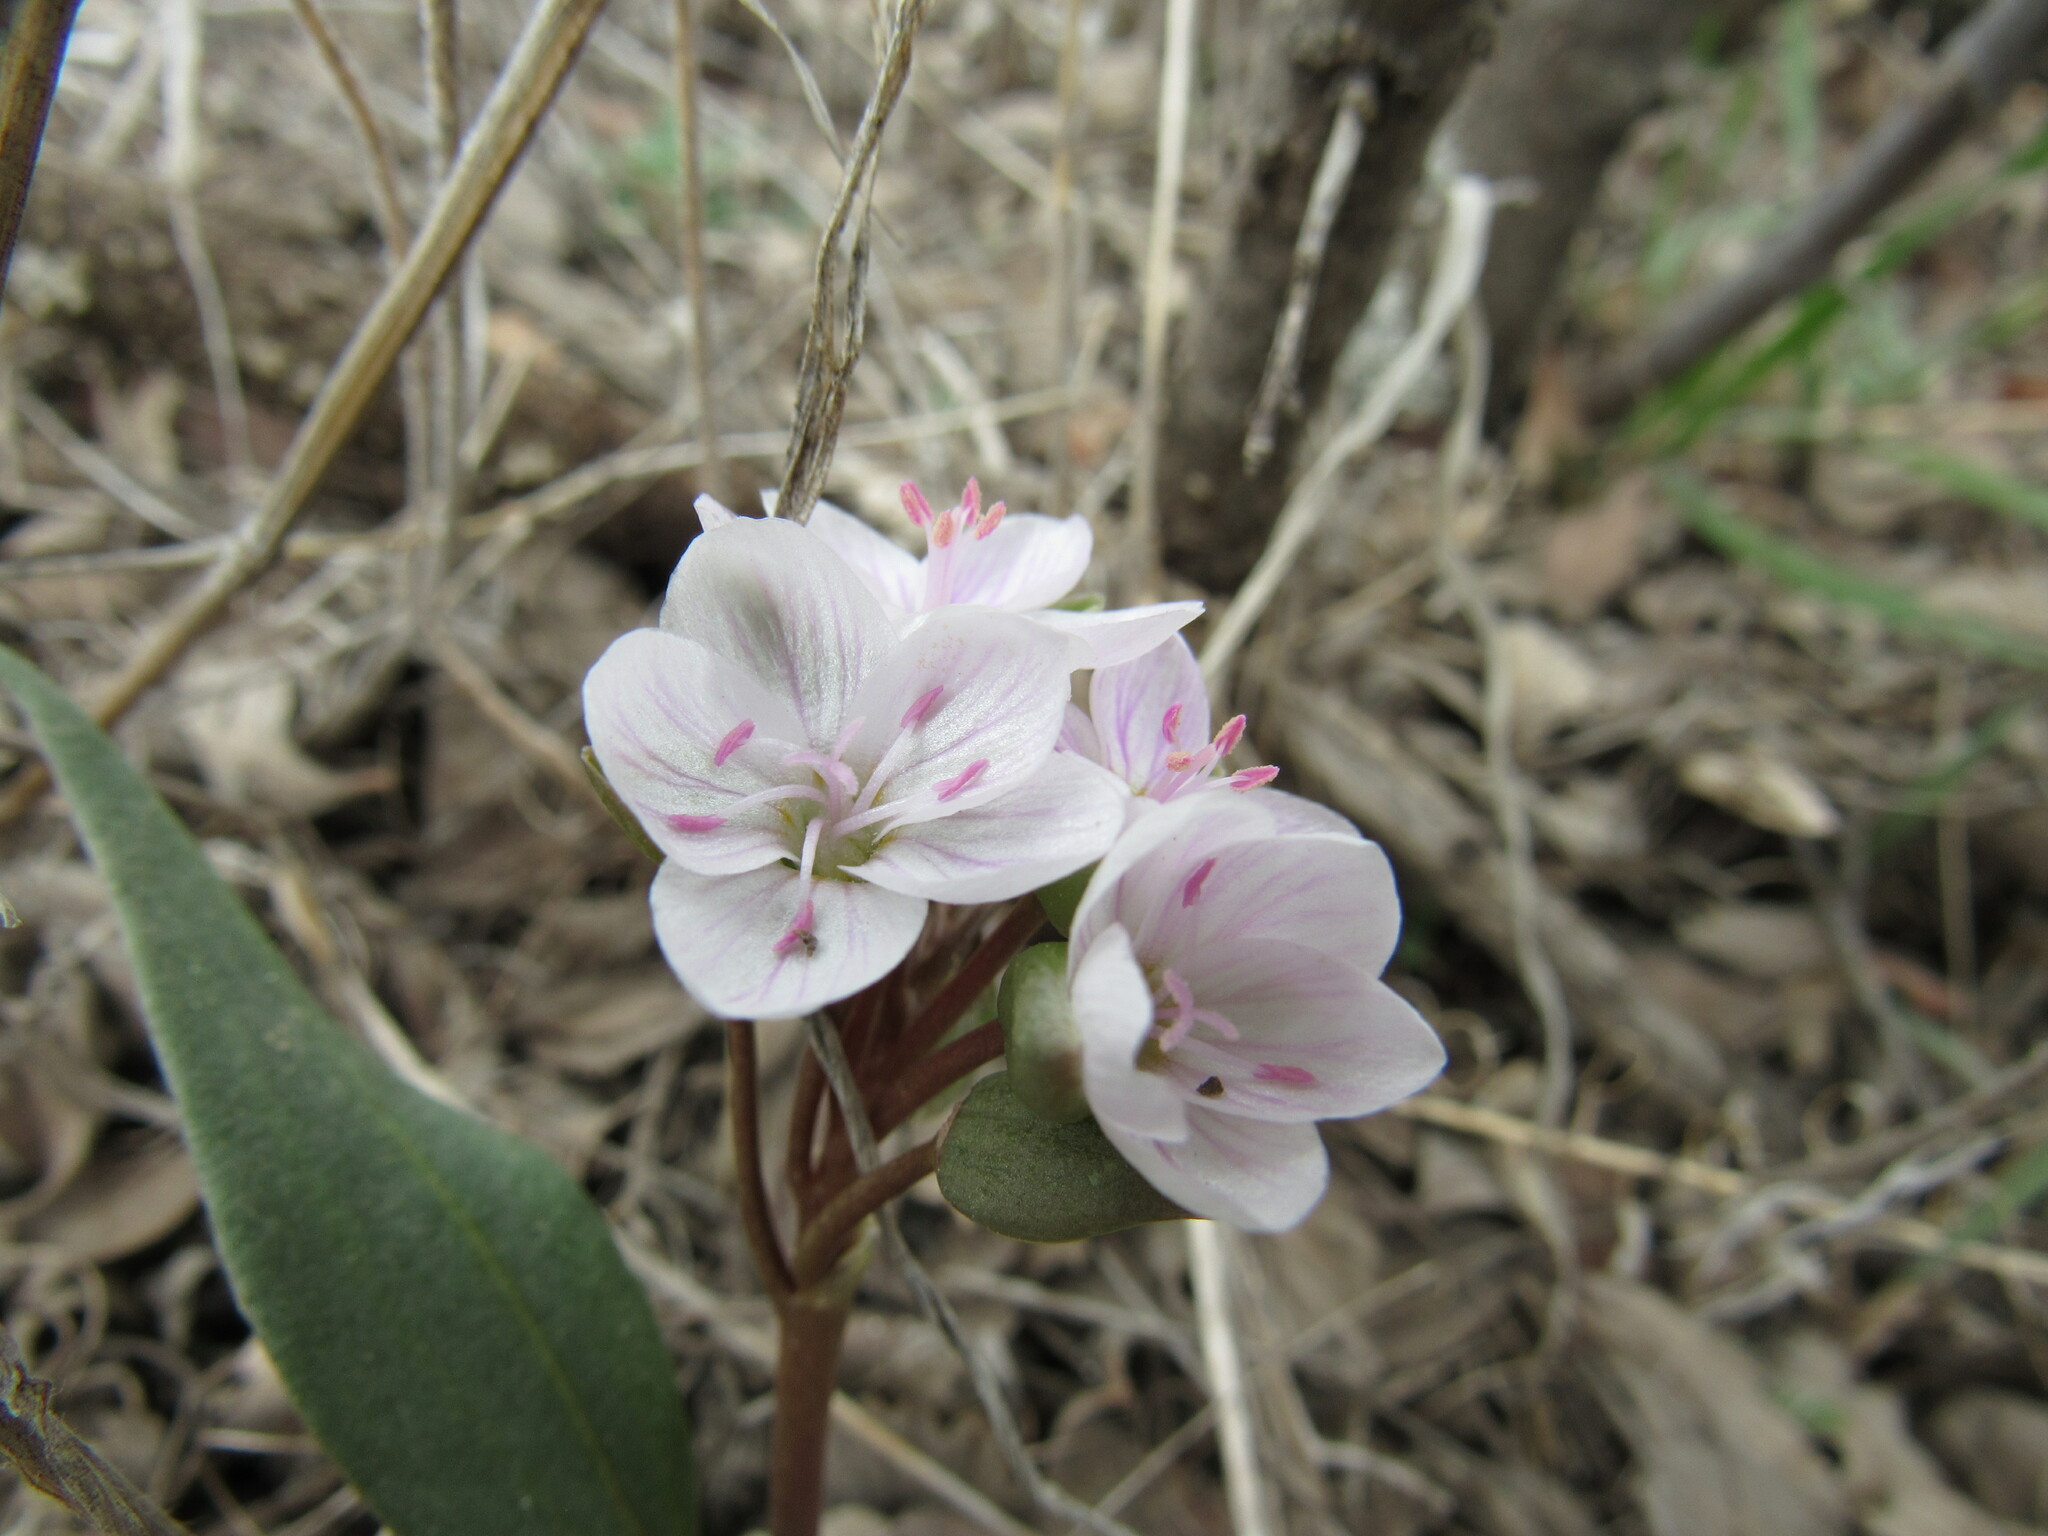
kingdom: Plantae
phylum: Tracheophyta
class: Magnoliopsida
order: Caryophyllales
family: Montiaceae
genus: Claytonia
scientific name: Claytonia rosea
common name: Rocky mountain spring-beauty
